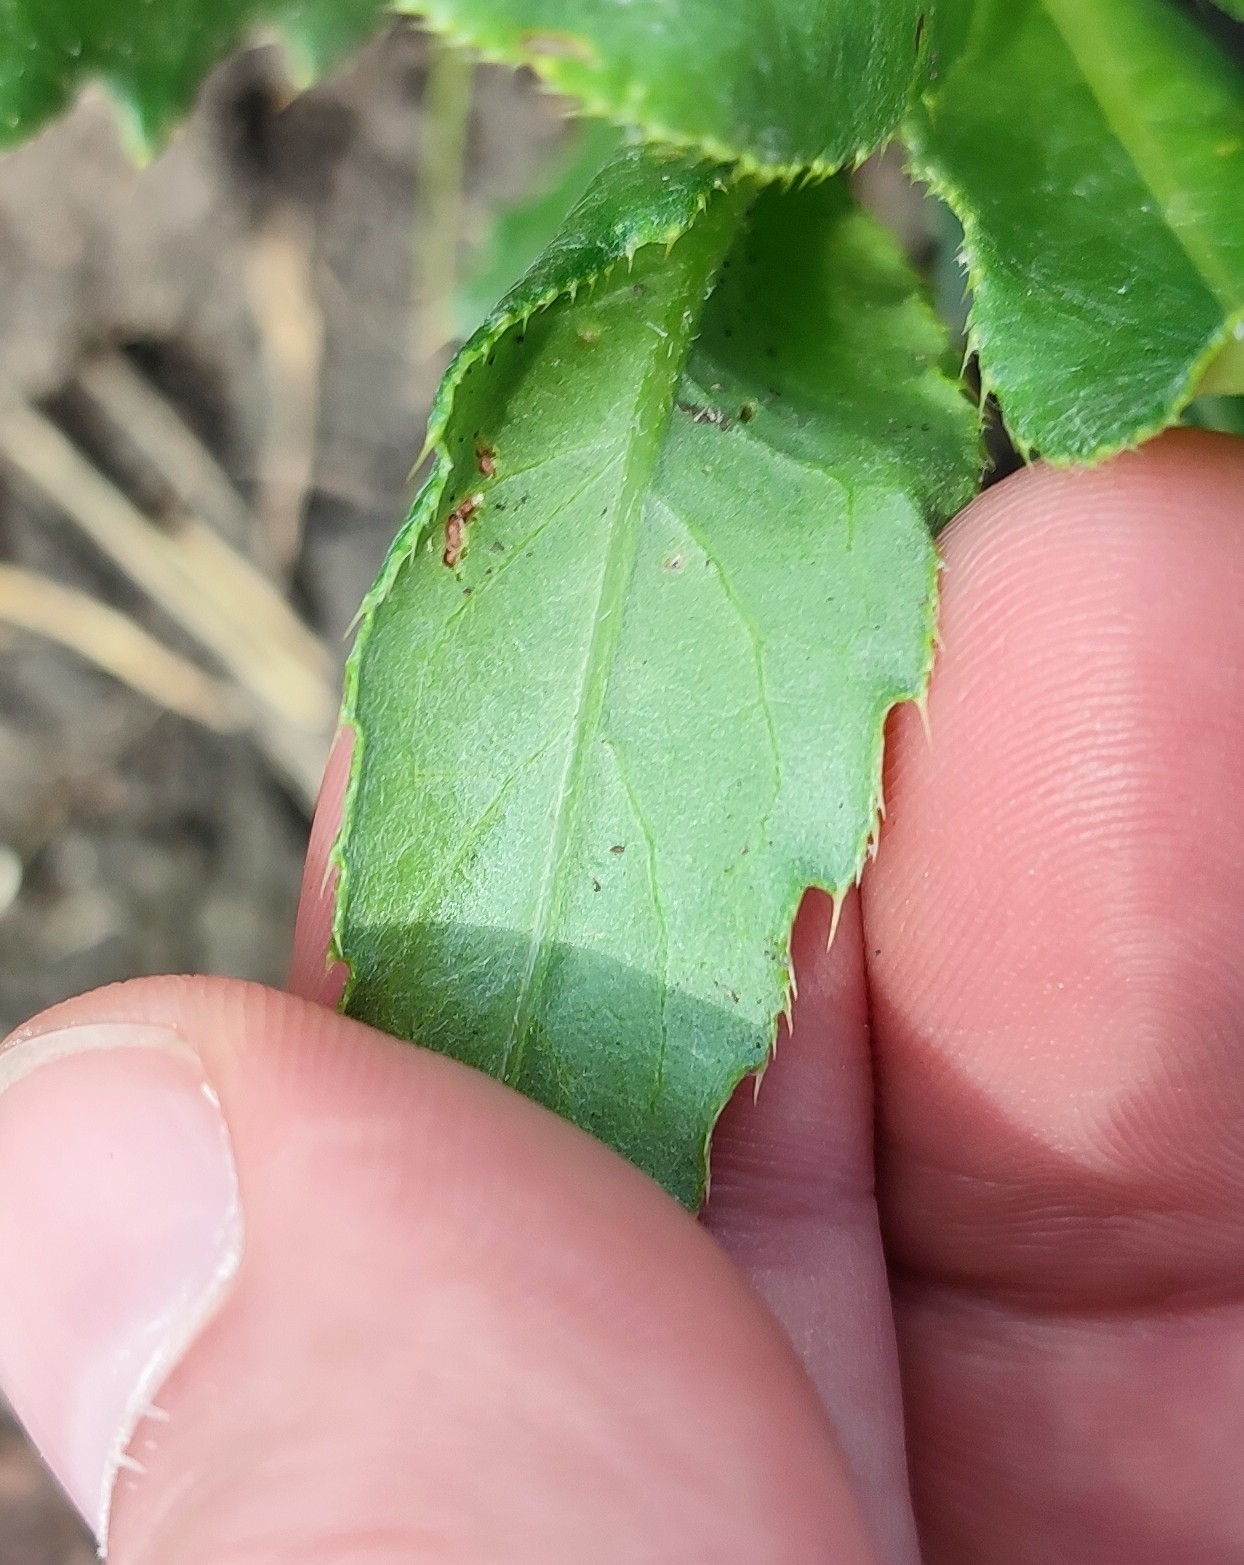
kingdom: Plantae
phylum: Tracheophyta
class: Magnoliopsida
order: Asterales
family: Asteraceae
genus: Cirsium
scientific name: Cirsium arvense
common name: Creeping thistle
